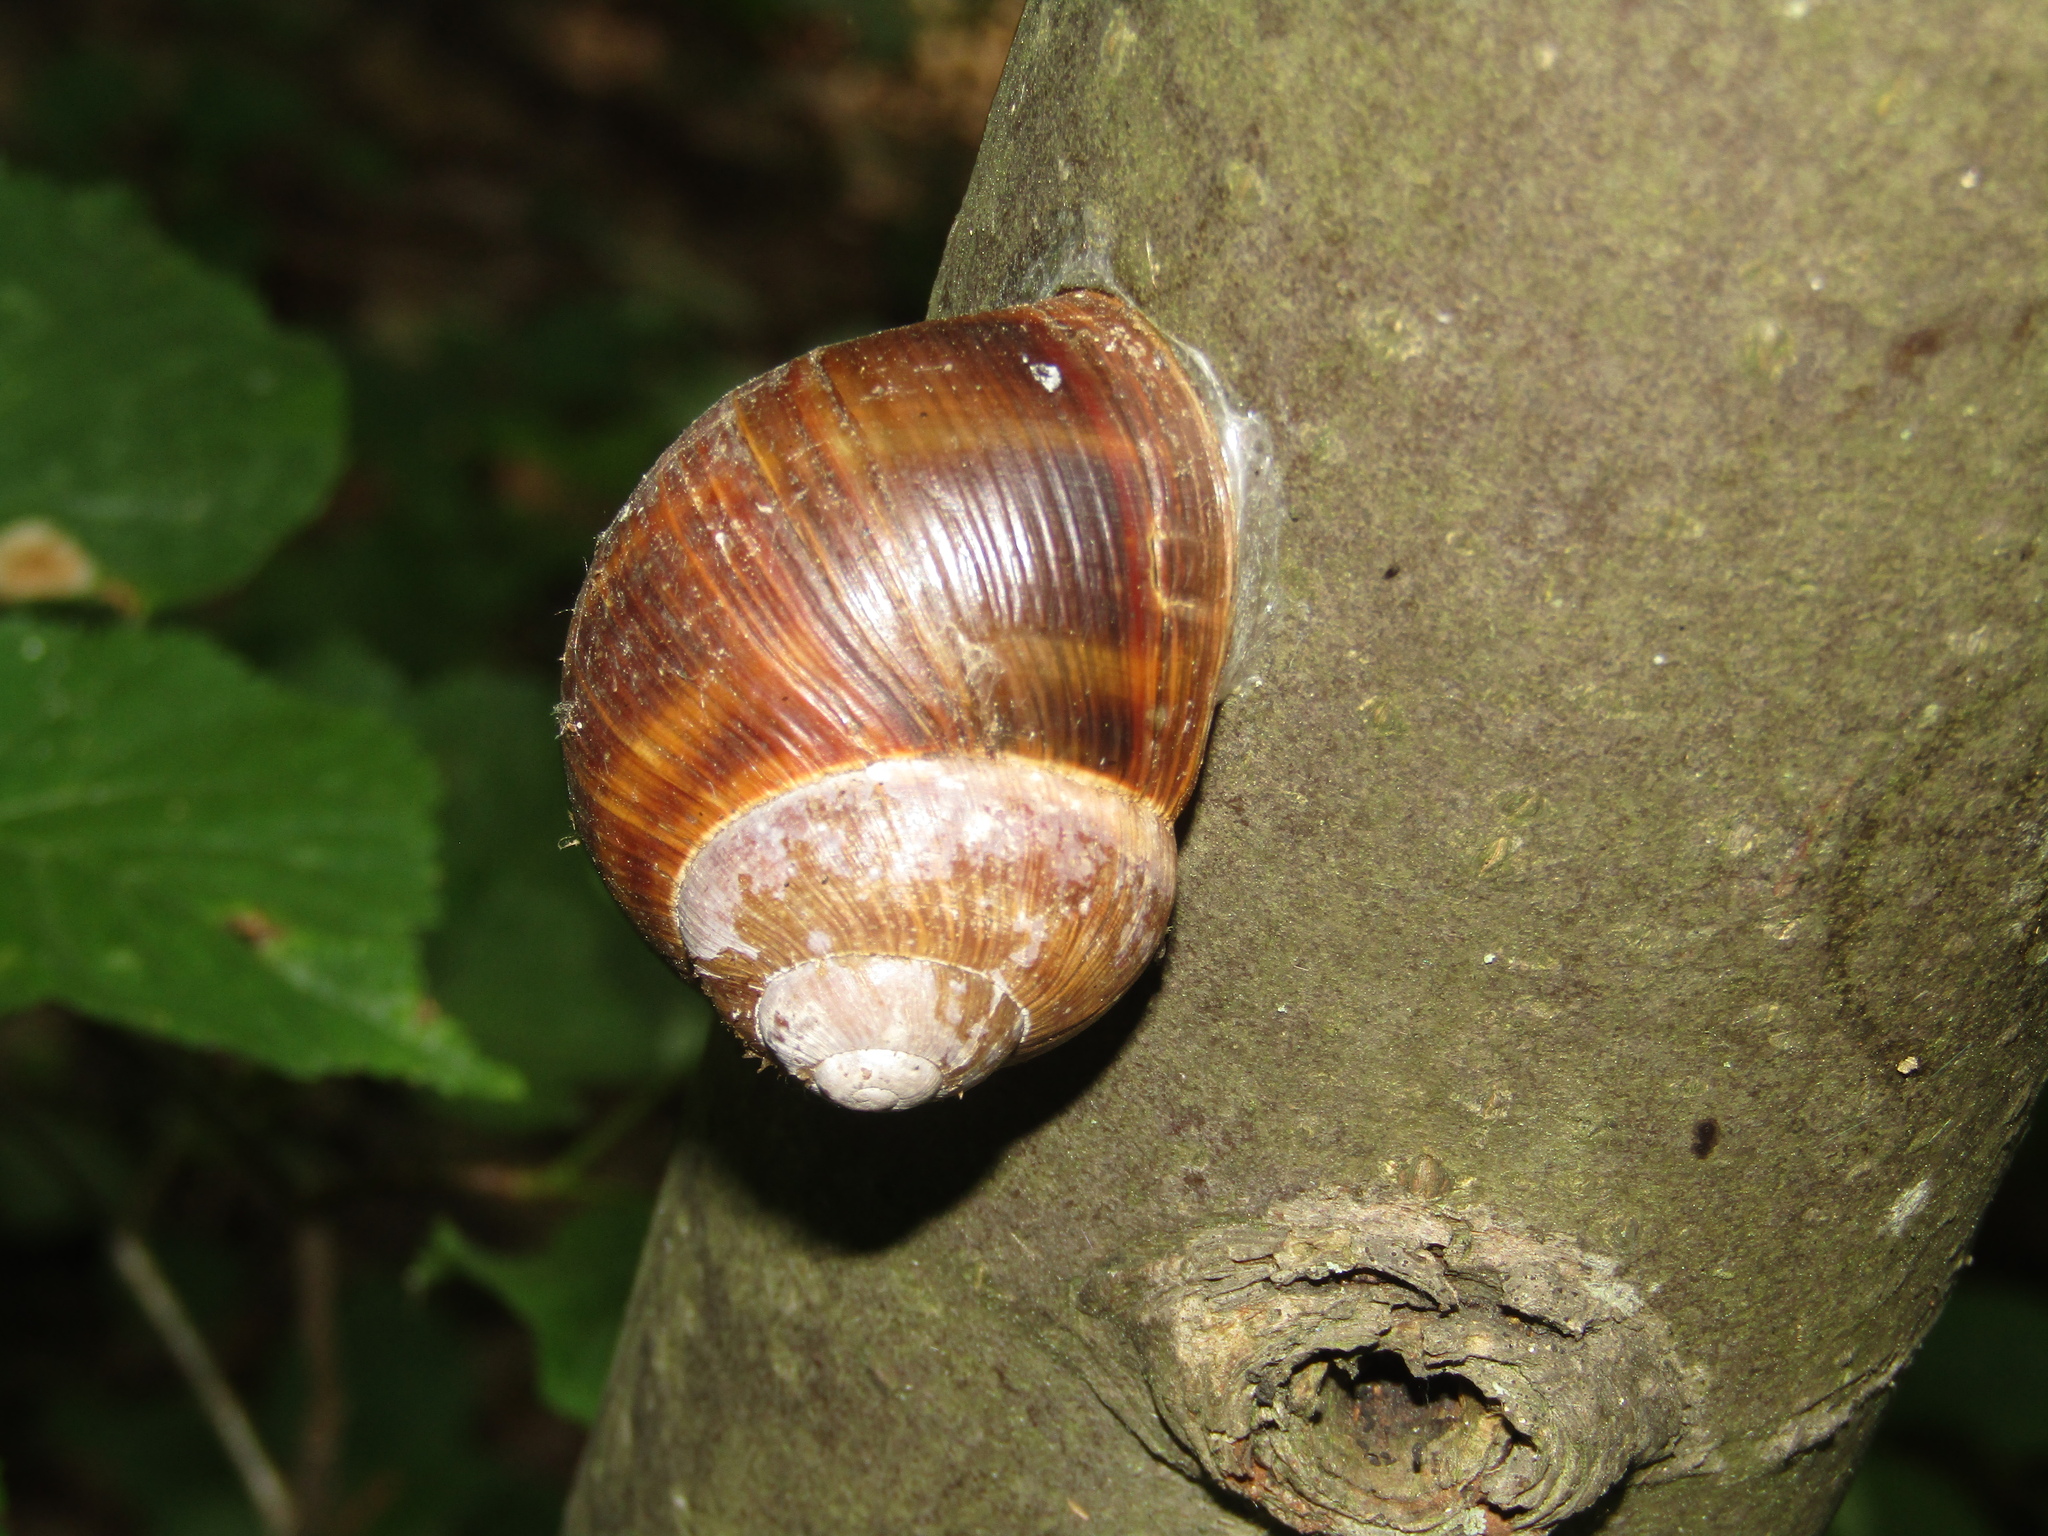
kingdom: Animalia
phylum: Mollusca
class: Gastropoda
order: Stylommatophora
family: Helicidae
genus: Helix
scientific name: Helix pomatia
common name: Roman snail
